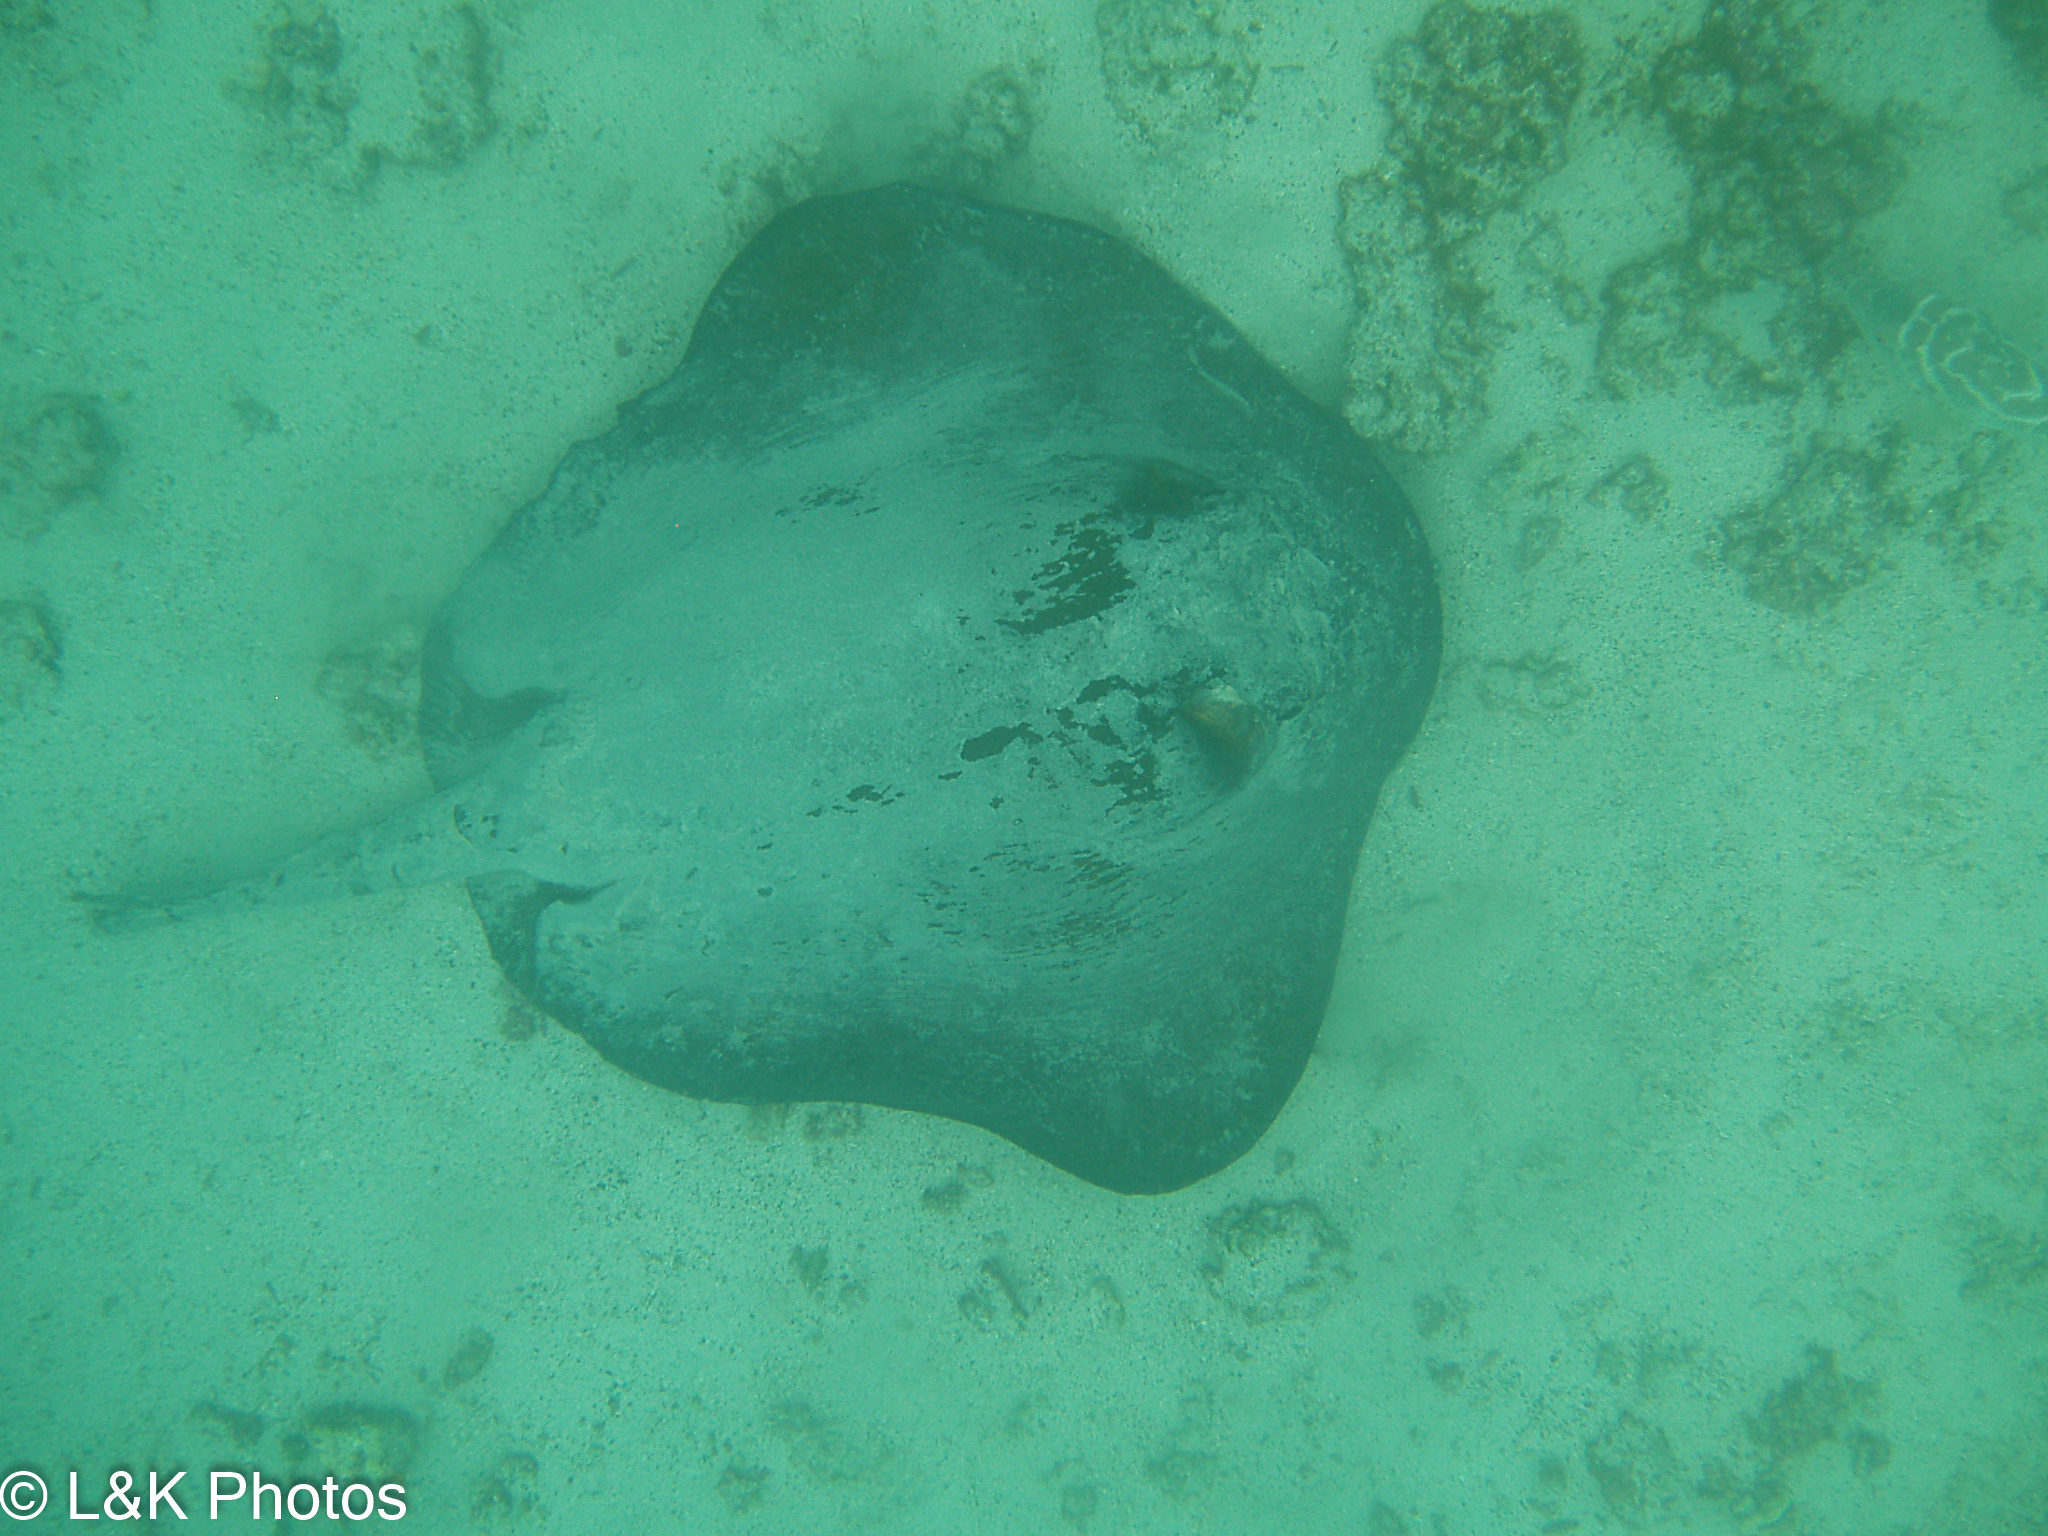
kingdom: Animalia
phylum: Chordata
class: Elasmobranchii
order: Myliobatiformes
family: Dasyatidae
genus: Hypanus
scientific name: Hypanus dipterurus
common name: Diamond stingray
